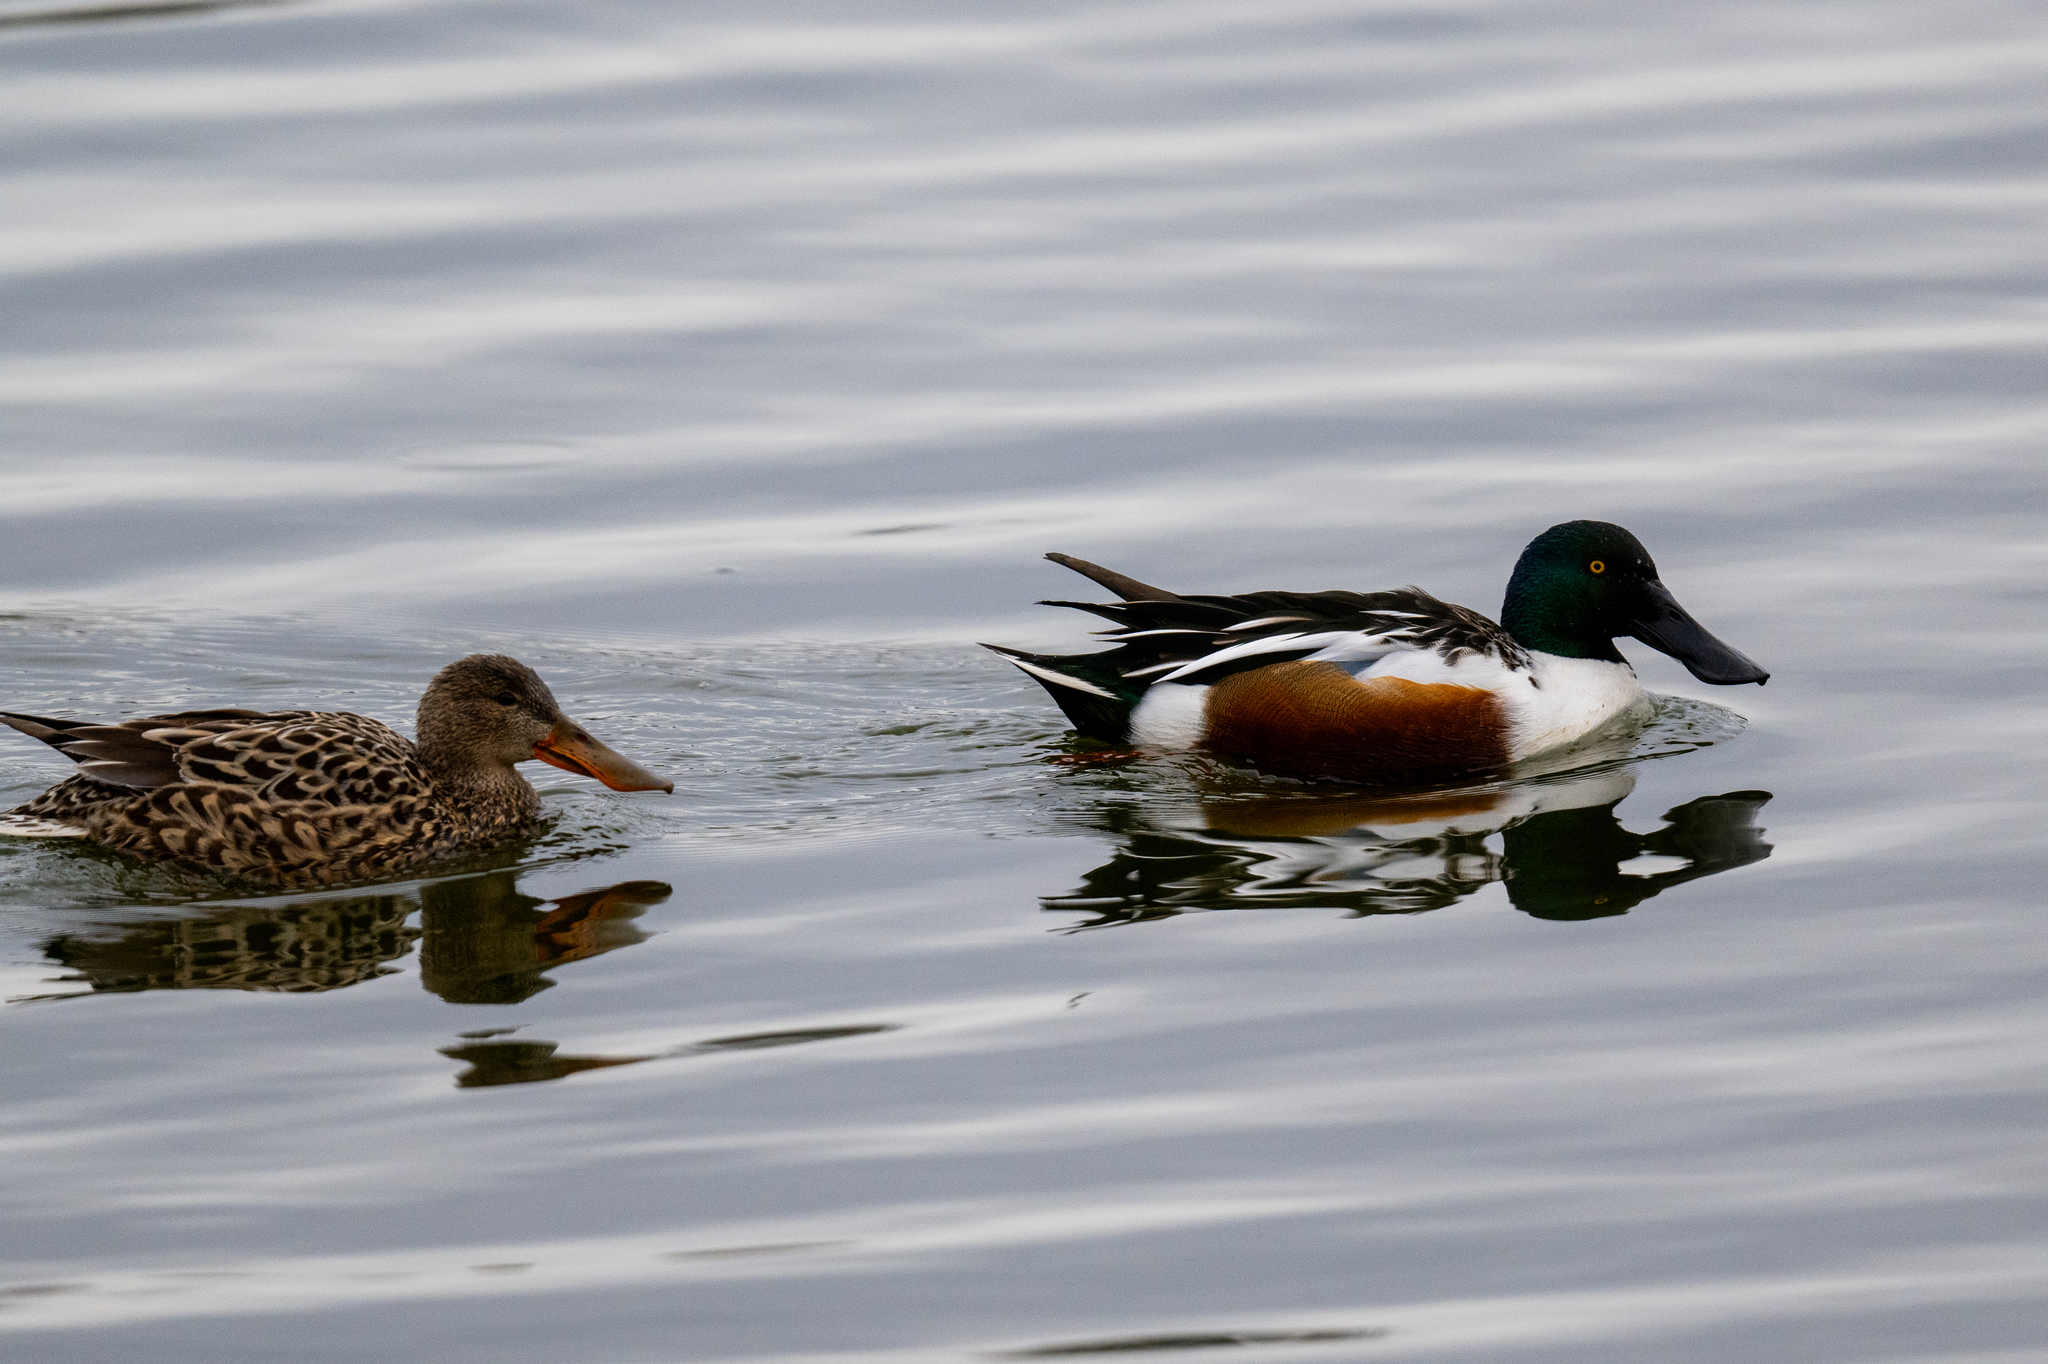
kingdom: Animalia
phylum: Chordata
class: Aves
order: Anseriformes
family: Anatidae
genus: Spatula
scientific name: Spatula clypeata
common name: Northern shoveler
